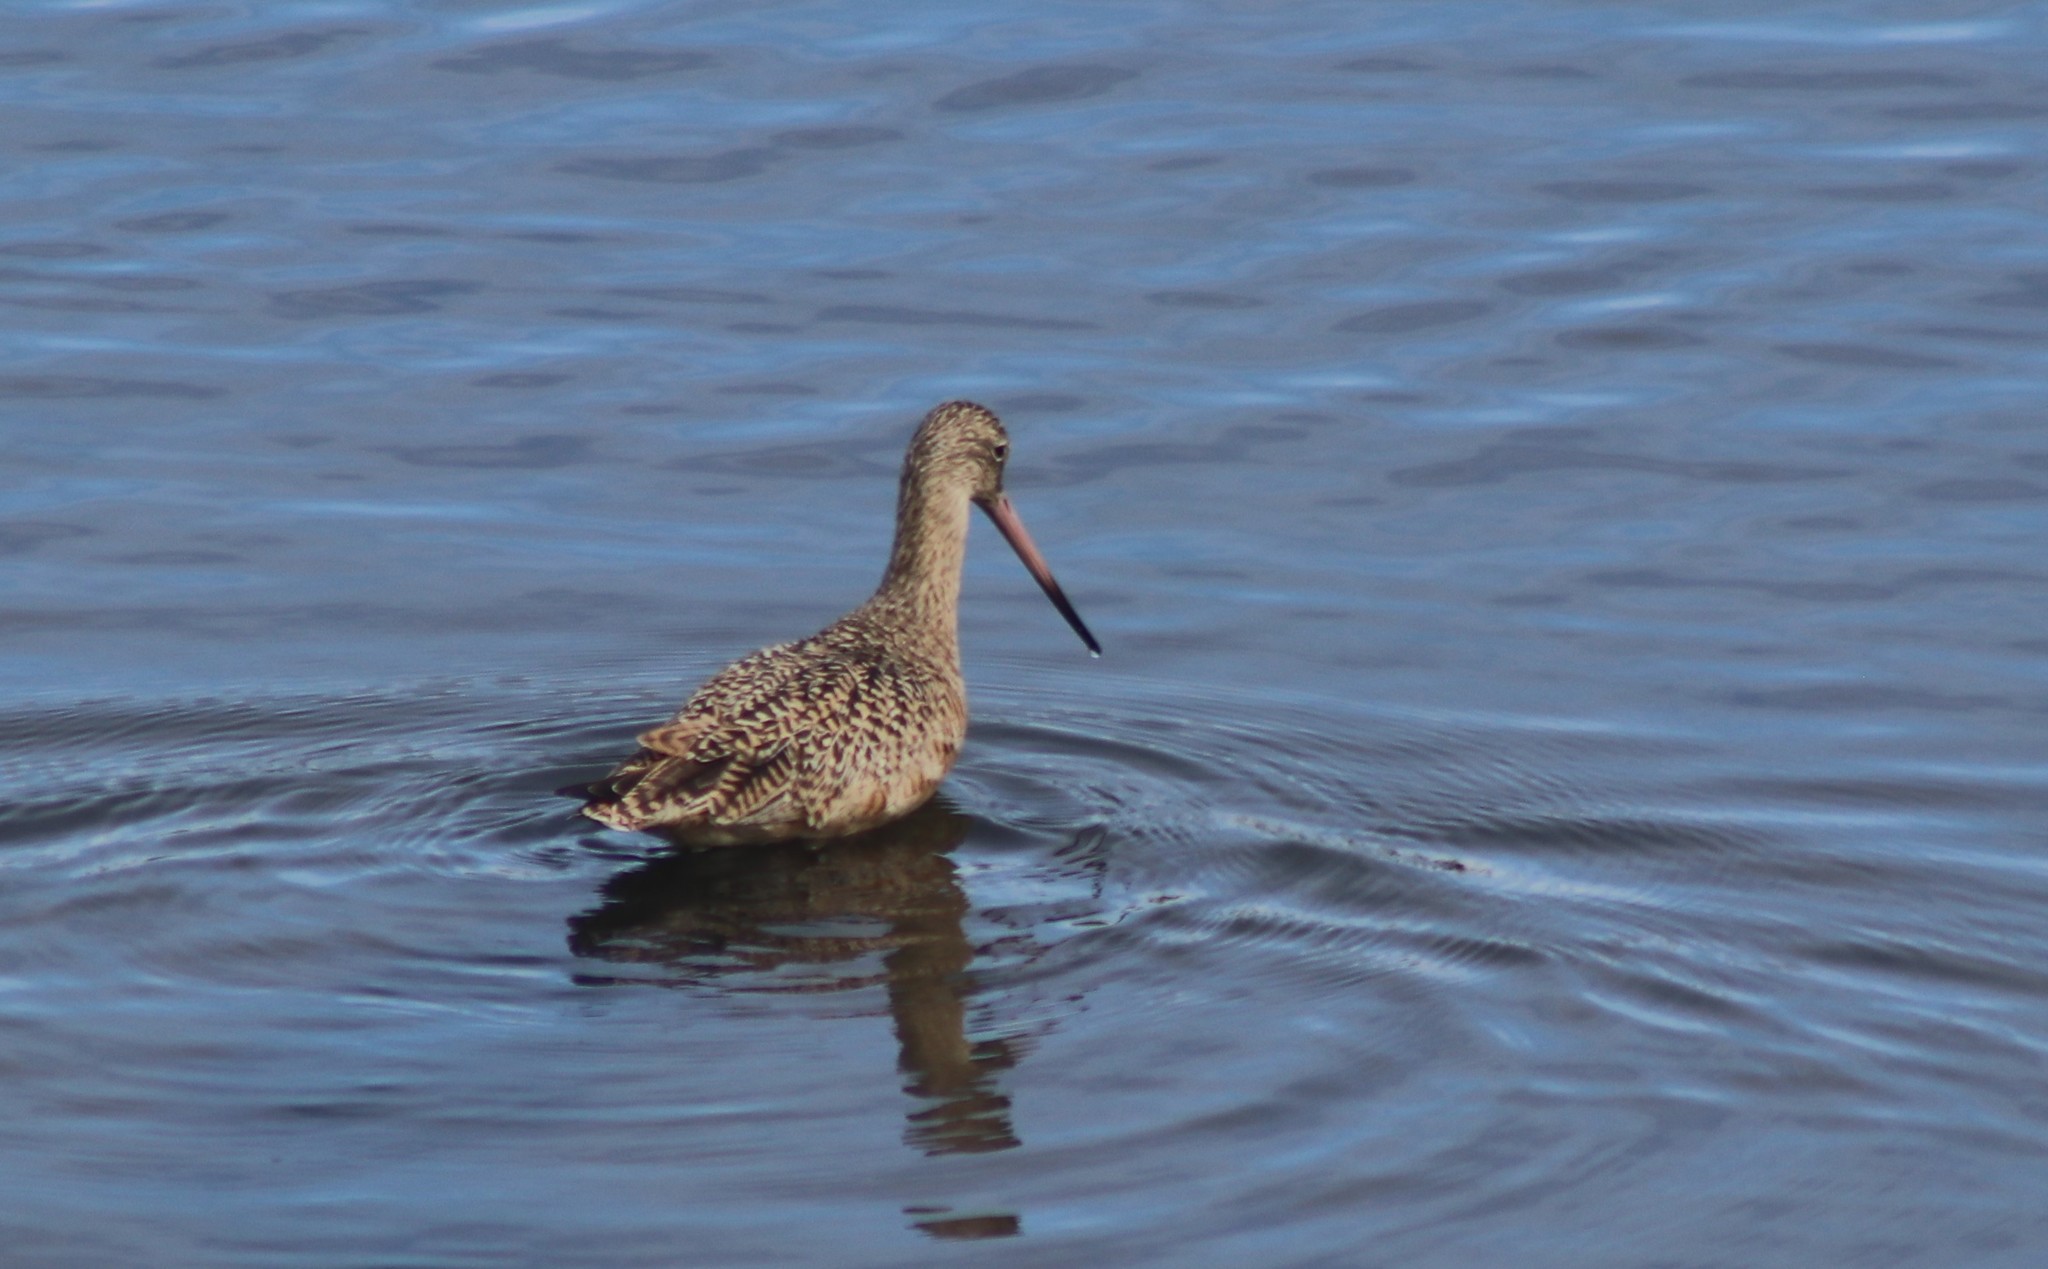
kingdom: Animalia
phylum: Chordata
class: Aves
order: Charadriiformes
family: Scolopacidae
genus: Limosa
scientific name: Limosa fedoa
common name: Marbled godwit
